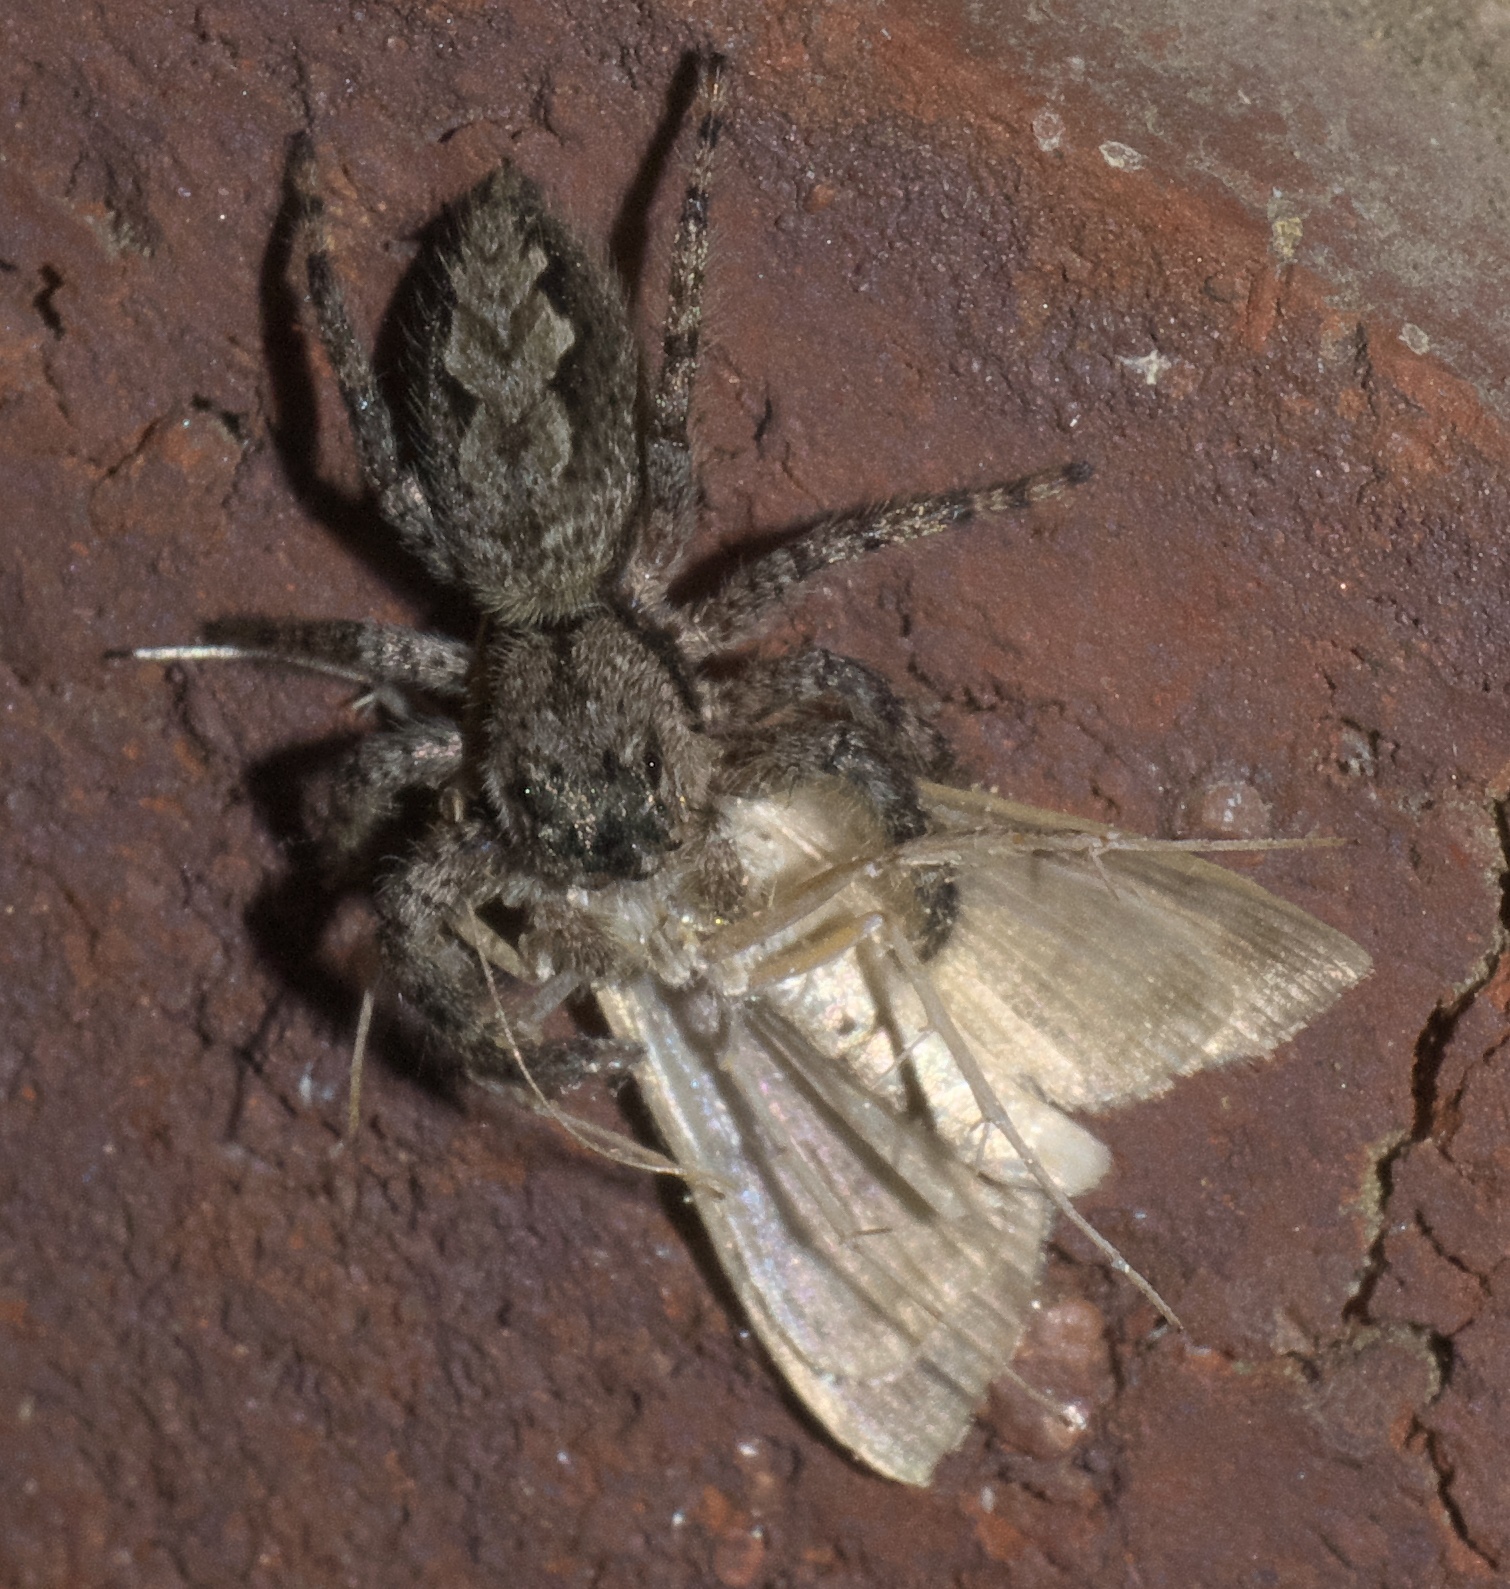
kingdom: Animalia
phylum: Arthropoda
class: Arachnida
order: Araneae
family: Salticidae
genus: Platycryptus
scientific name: Platycryptus undatus
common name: Tan jumping spider
